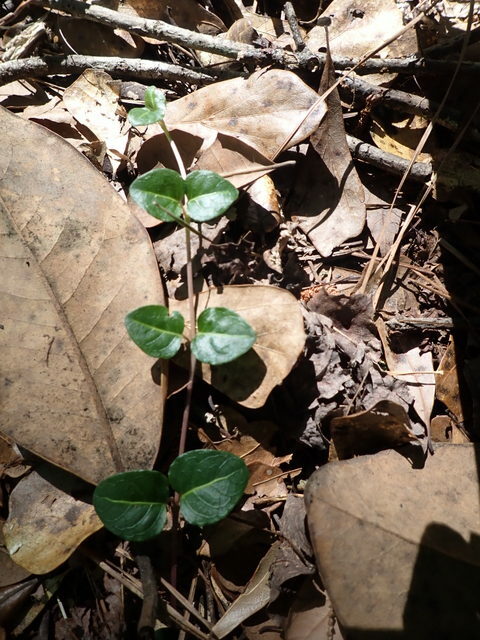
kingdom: Plantae
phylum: Tracheophyta
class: Magnoliopsida
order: Gentianales
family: Rubiaceae
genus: Mitchella
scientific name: Mitchella repens
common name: Partridge-berry
